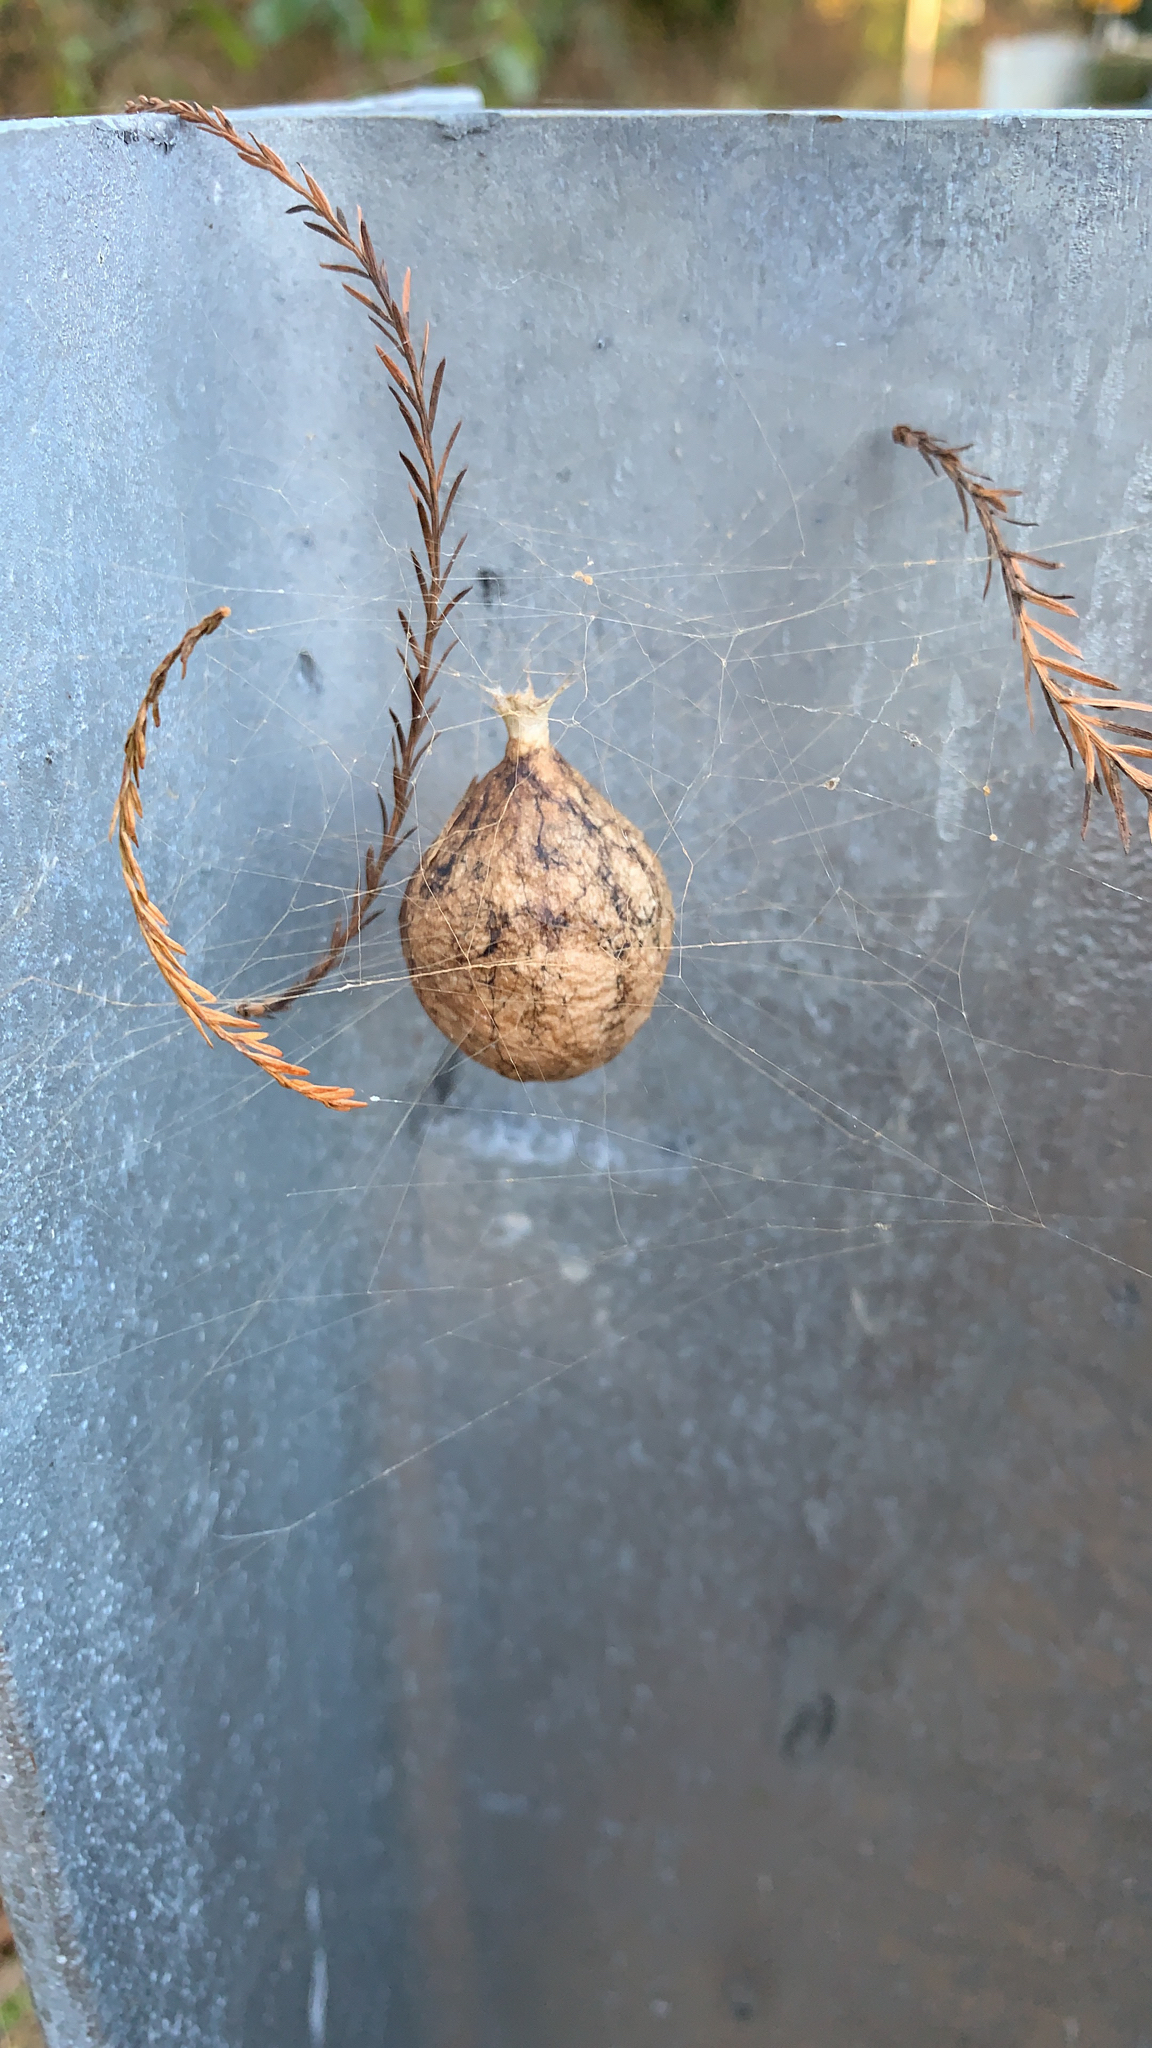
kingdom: Animalia
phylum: Arthropoda
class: Arachnida
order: Araneae
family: Araneidae
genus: Argiope
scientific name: Argiope aurantia
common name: Orb weavers
